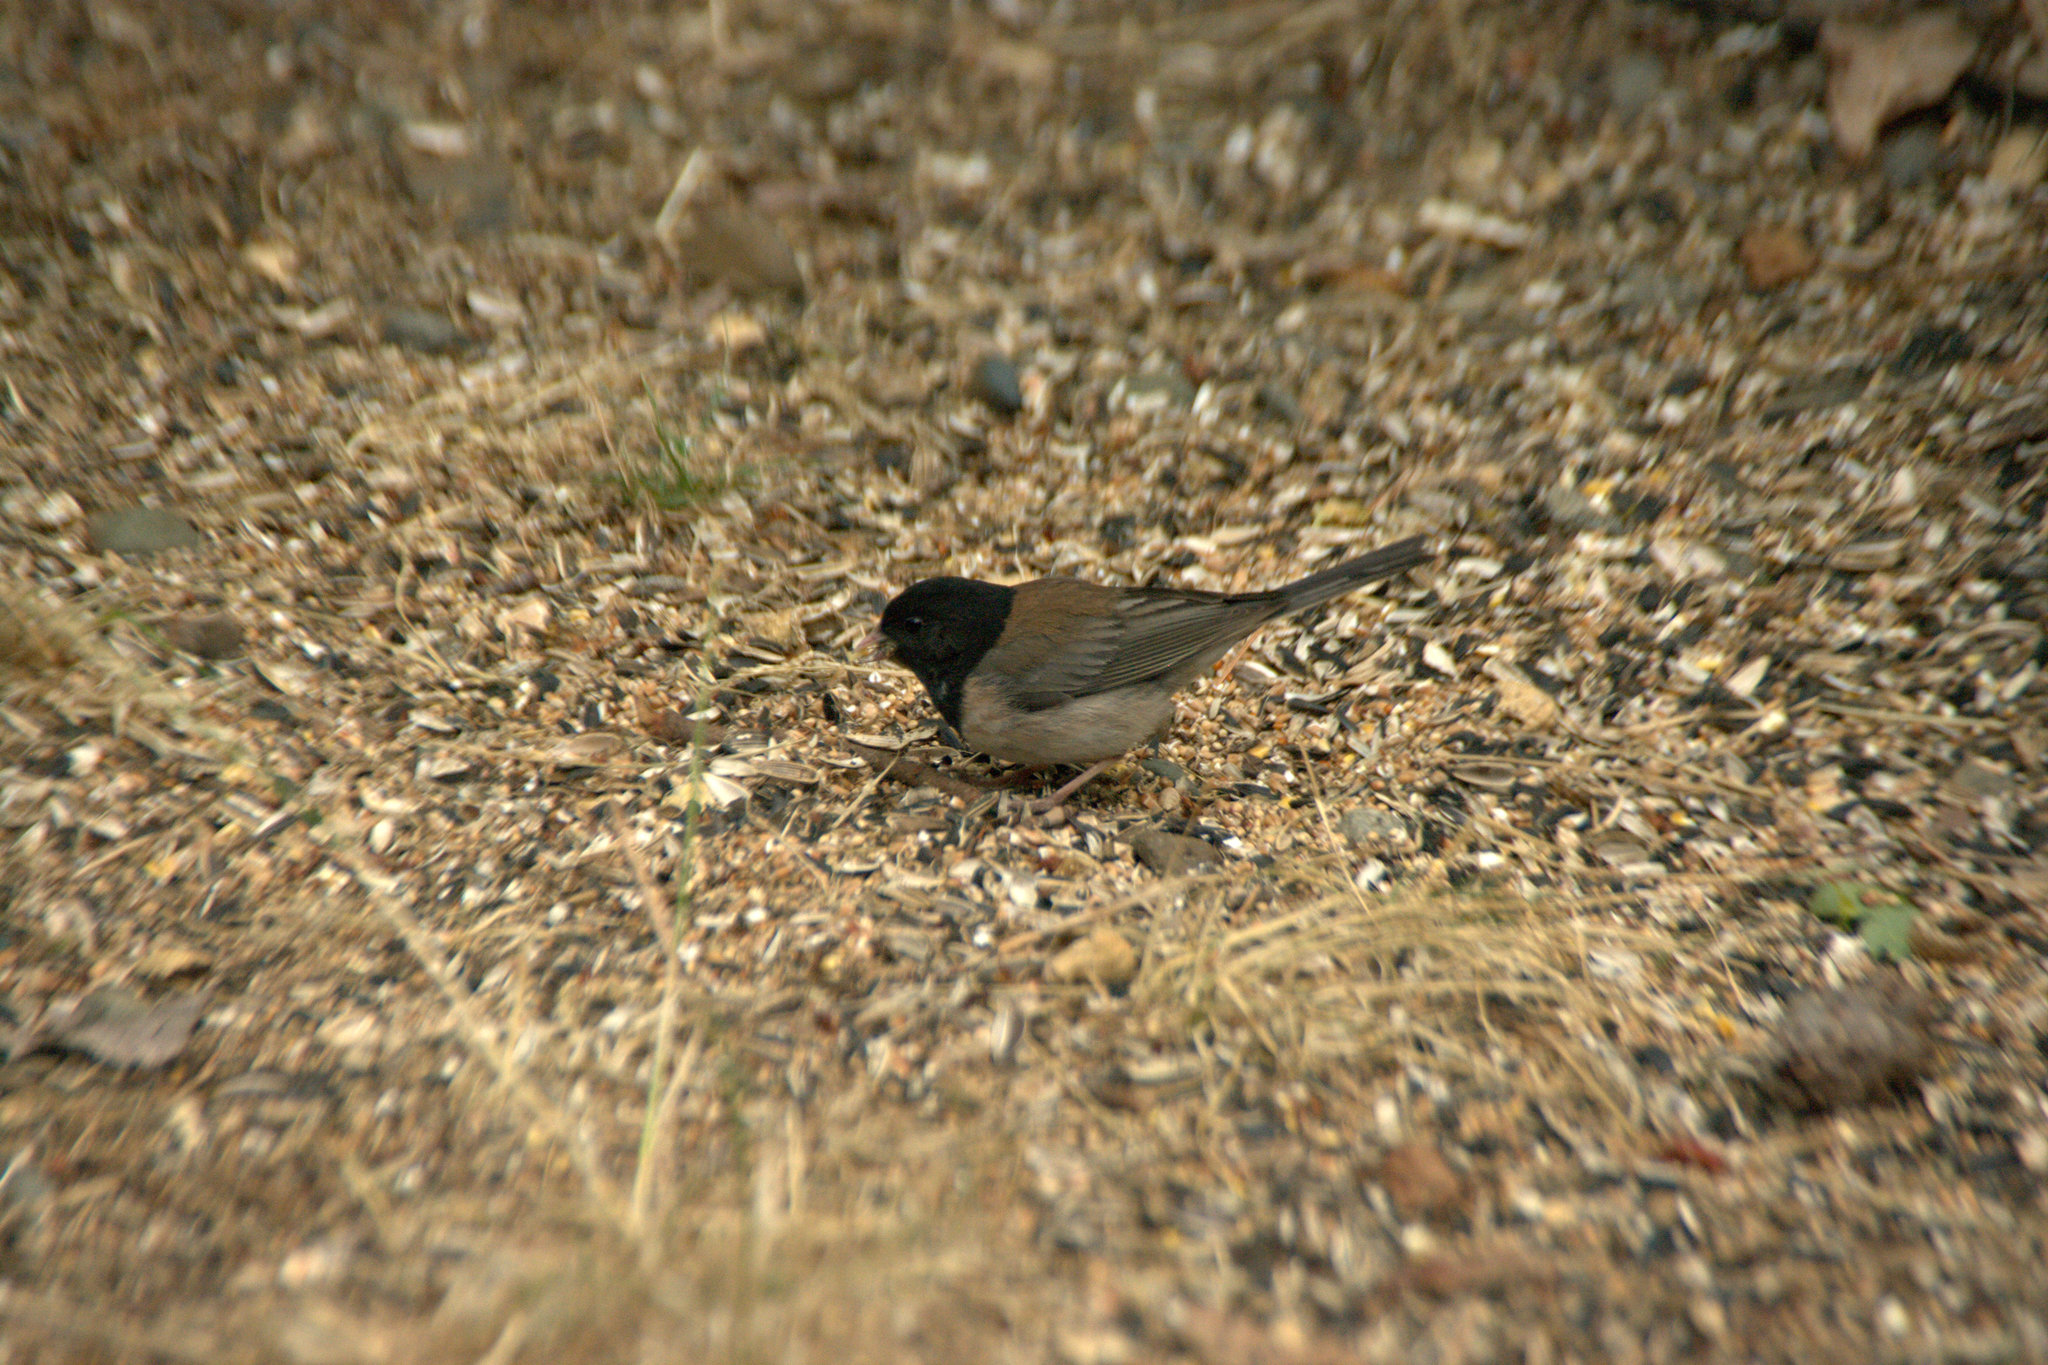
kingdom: Animalia
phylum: Chordata
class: Aves
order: Passeriformes
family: Passerellidae
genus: Junco
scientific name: Junco hyemalis
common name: Dark-eyed junco
